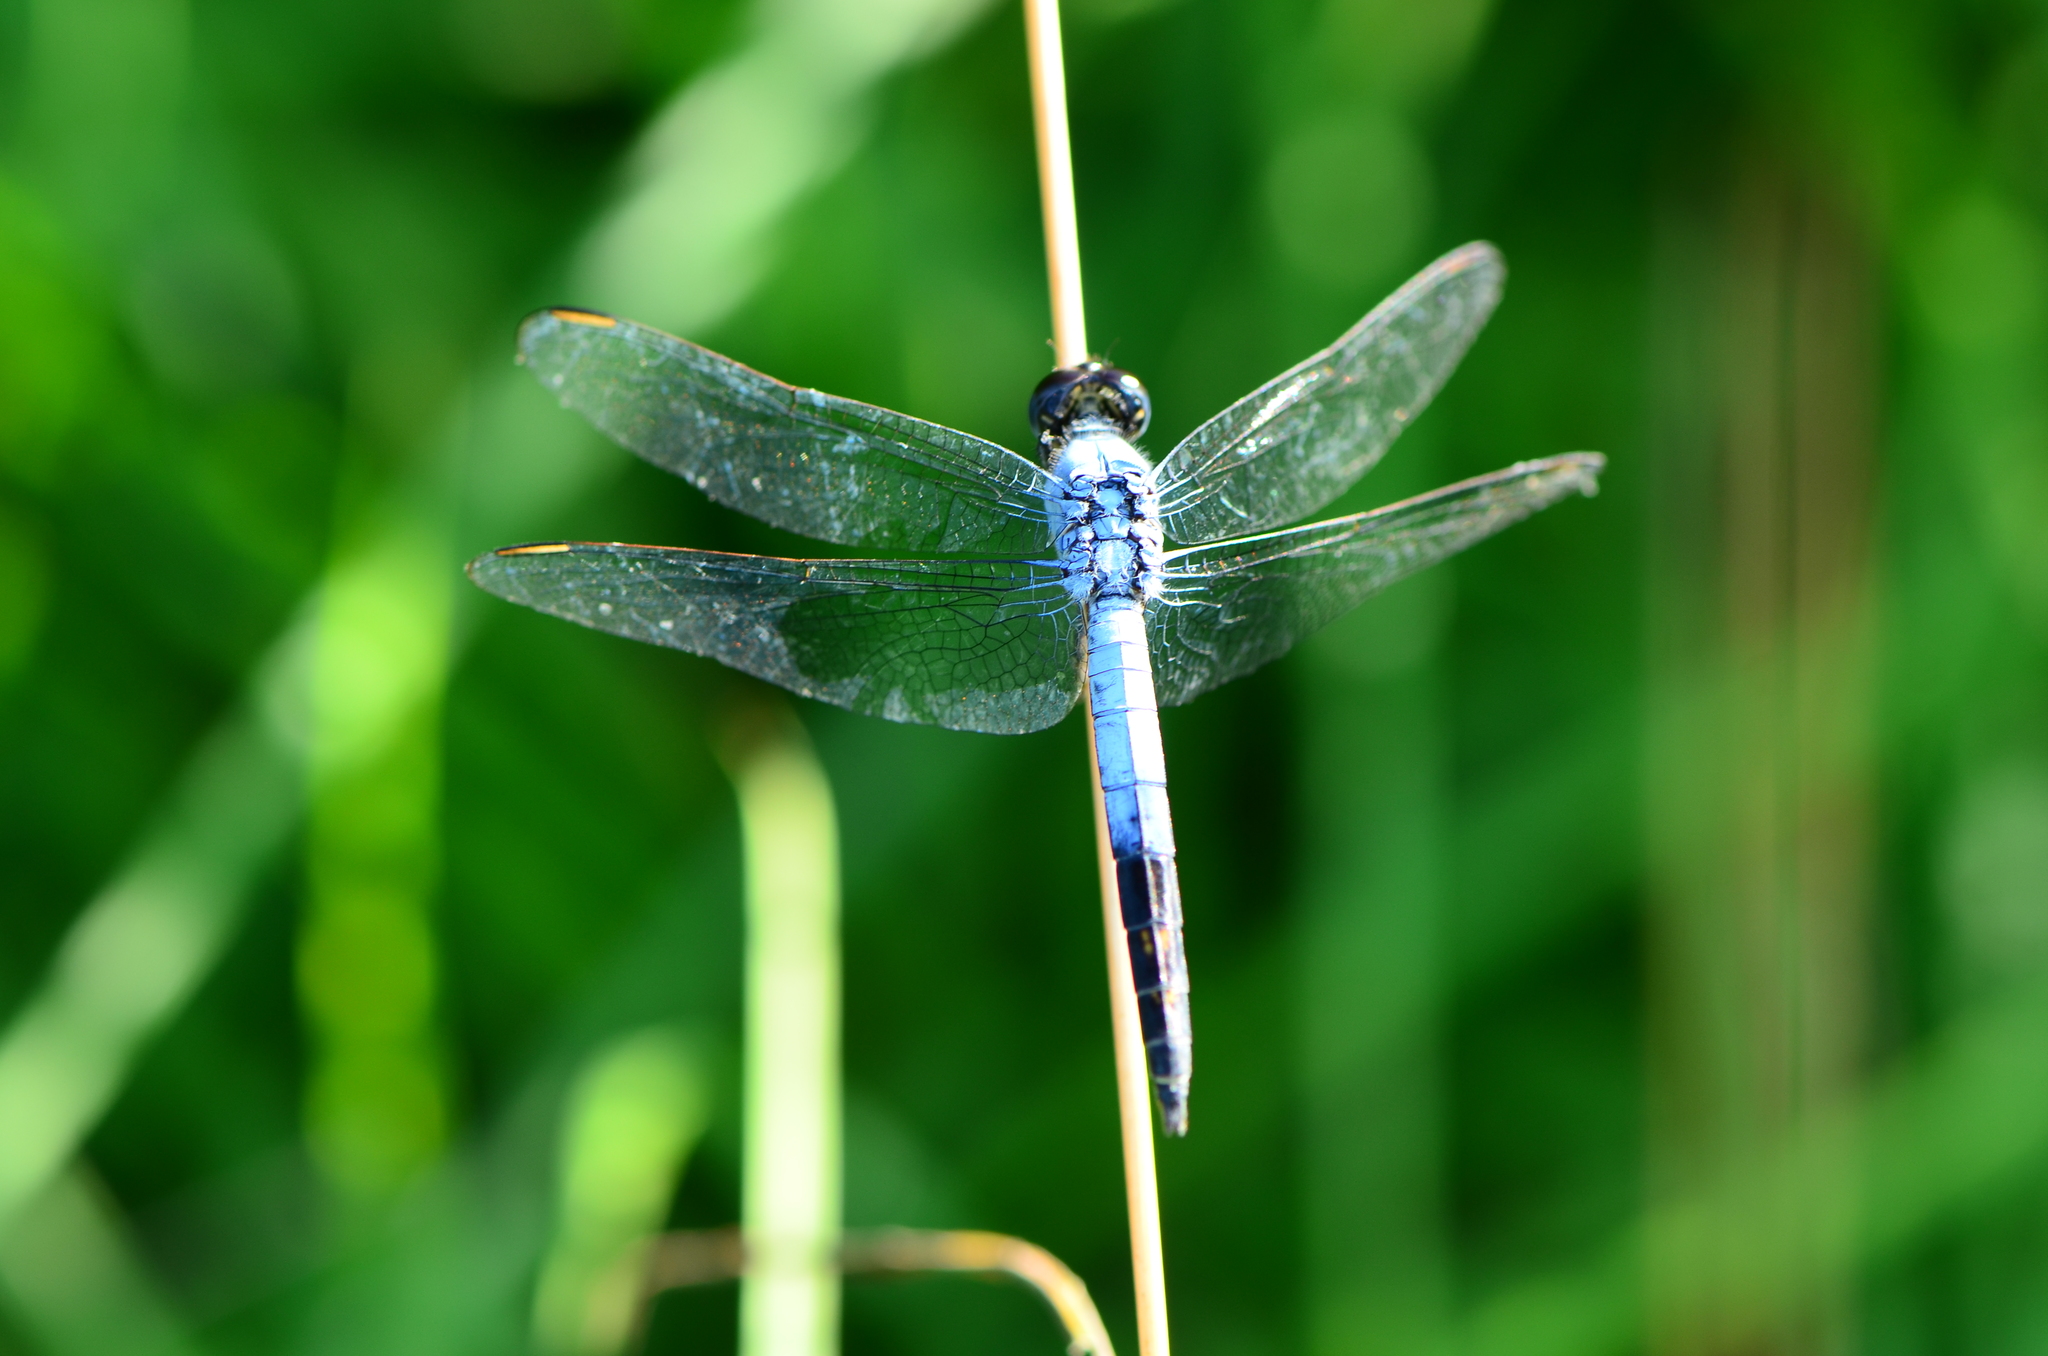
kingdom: Animalia
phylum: Arthropoda
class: Insecta
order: Odonata
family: Libellulidae
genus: Nesciothemis
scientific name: Nesciothemis farinosa
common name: Eastern blacktail
